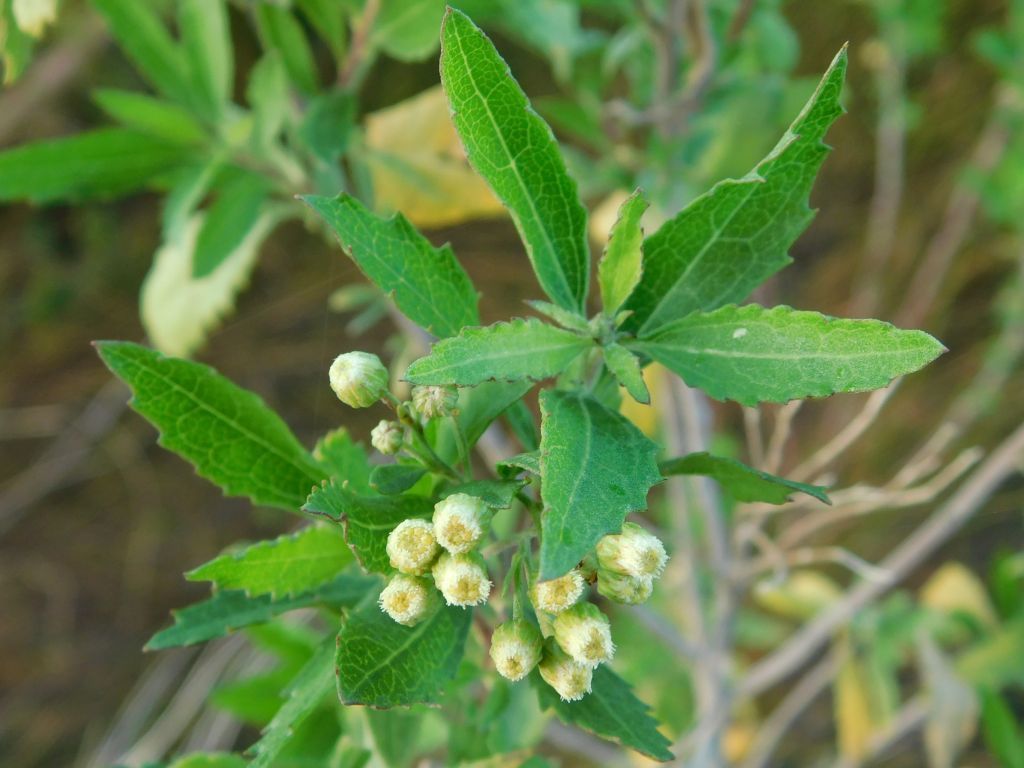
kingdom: Plantae
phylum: Tracheophyta
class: Magnoliopsida
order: Asterales
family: Asteraceae
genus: Nidorella
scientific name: Nidorella ivifolia
